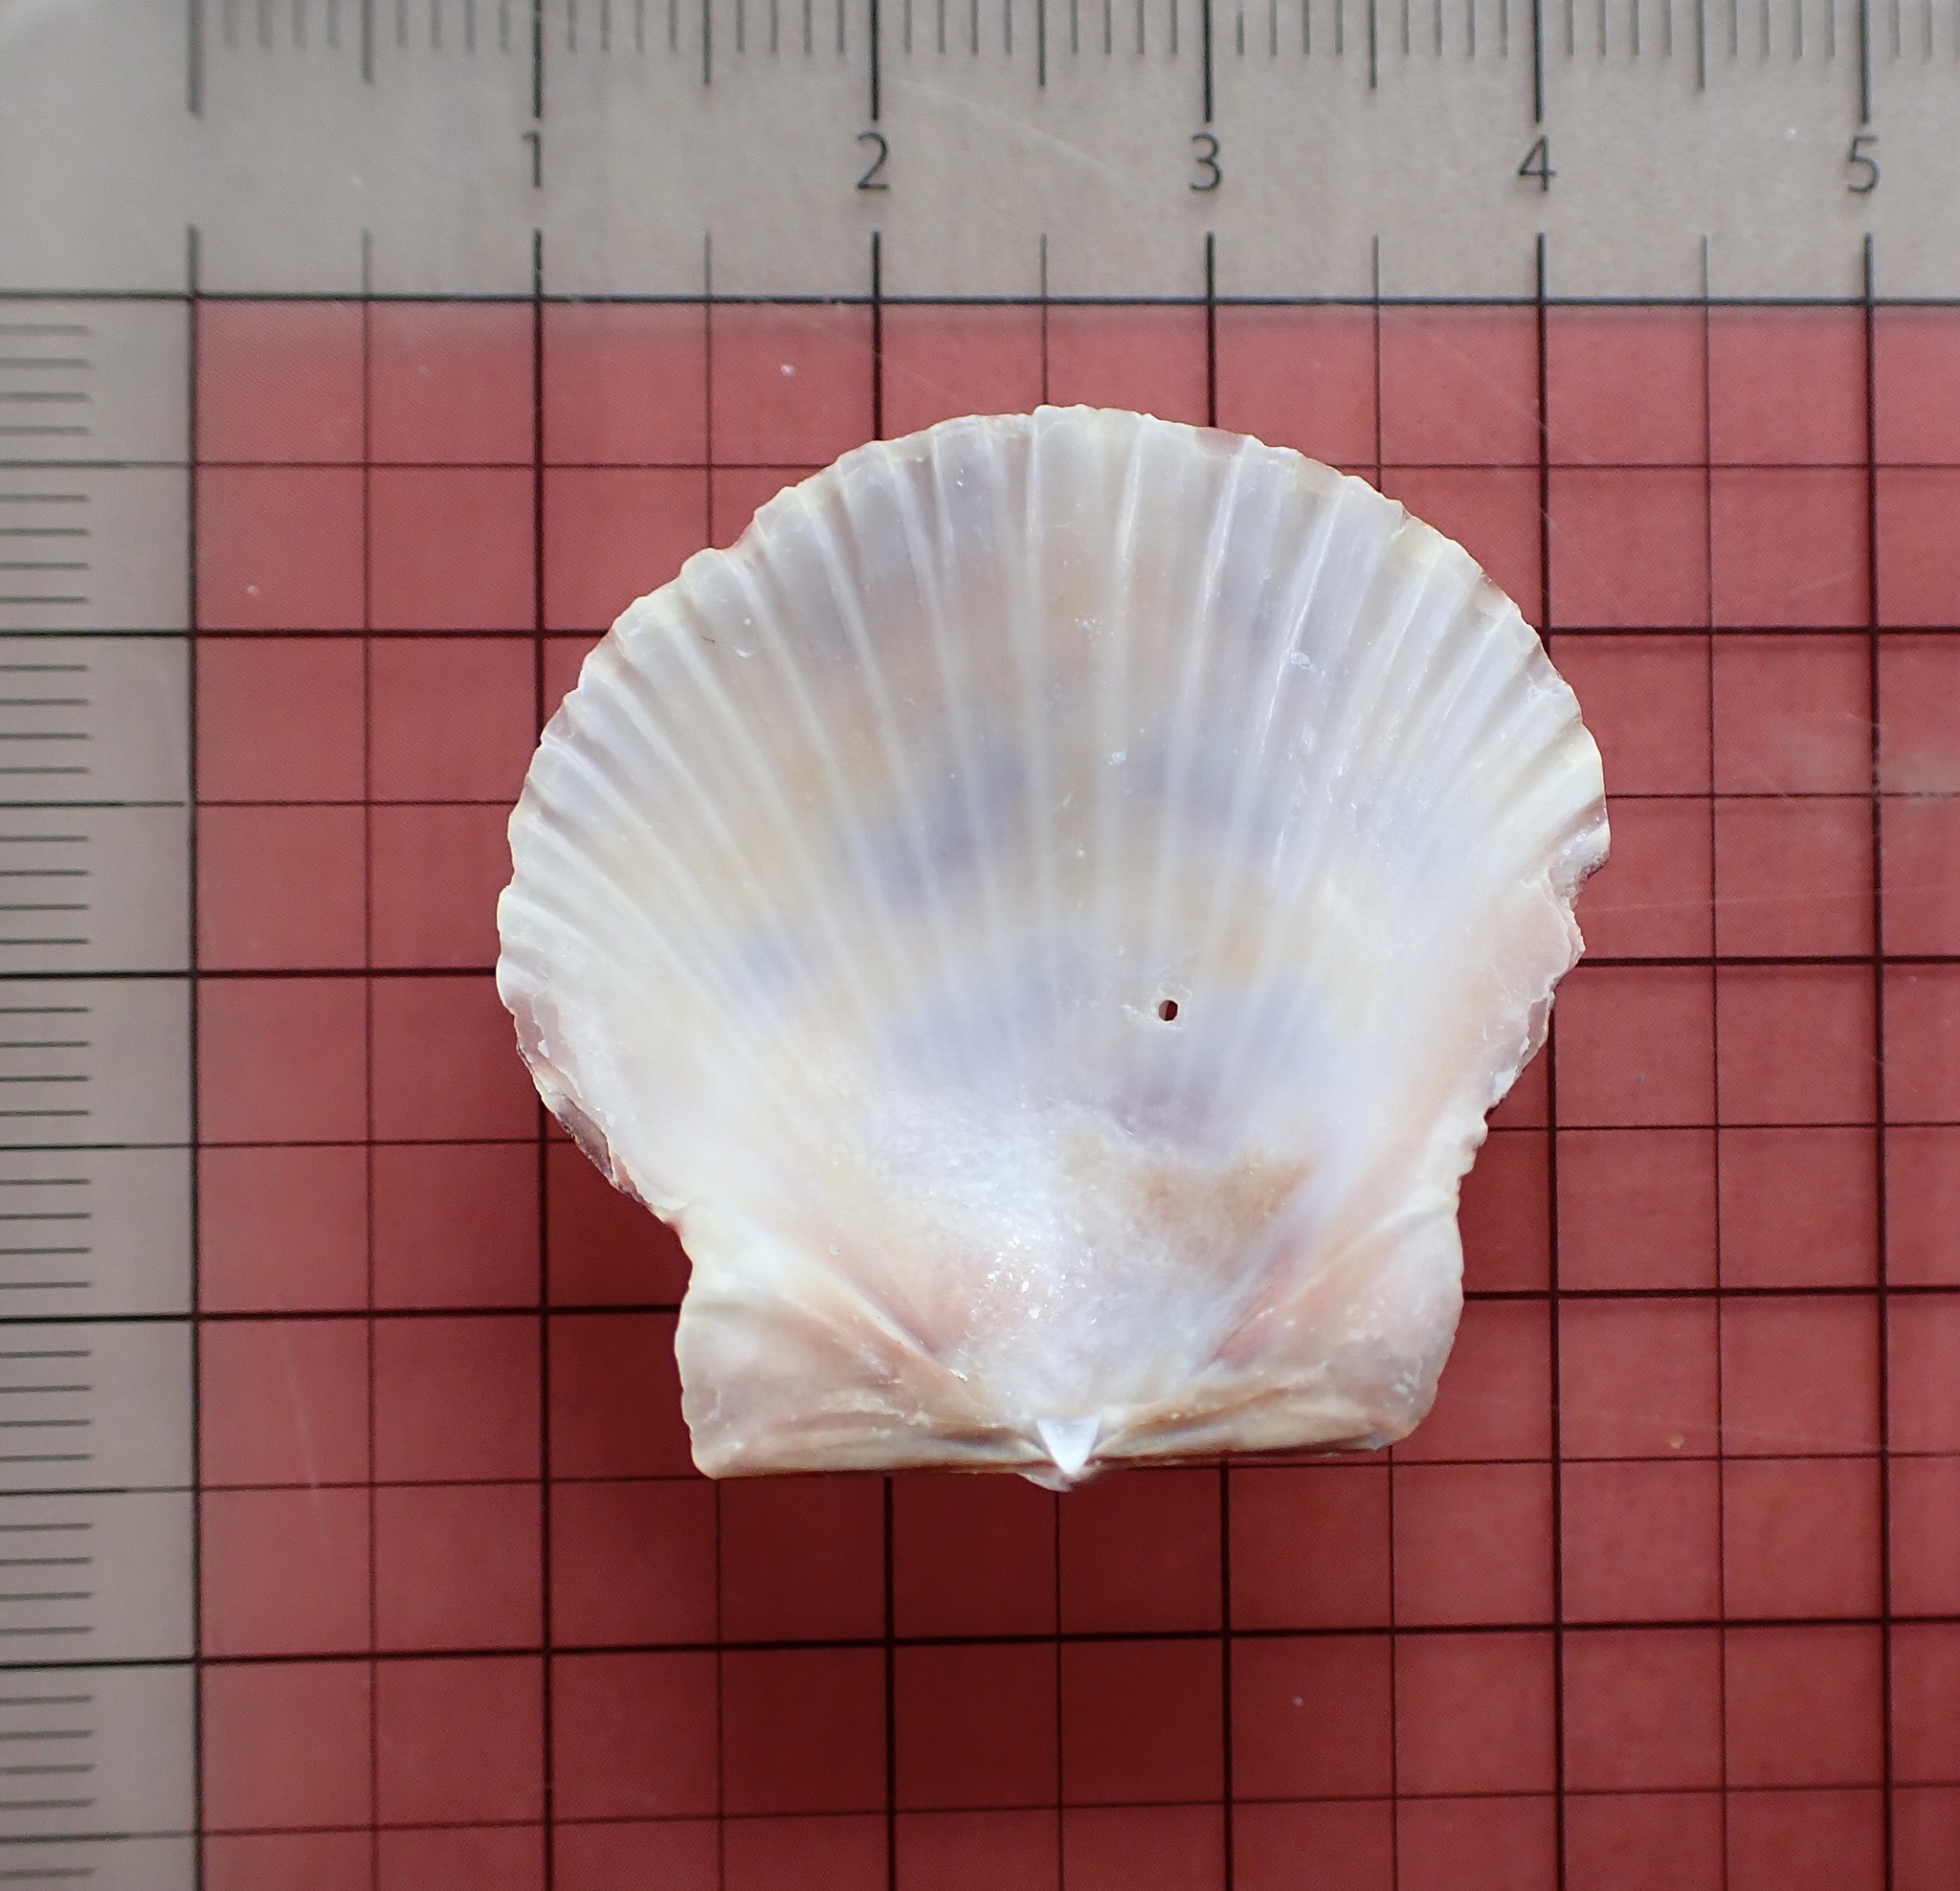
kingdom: Animalia
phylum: Mollusca
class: Bivalvia
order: Pectinida
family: Pectinidae
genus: Argopecten
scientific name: Argopecten gibbus
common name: Atlantic calico scallop
